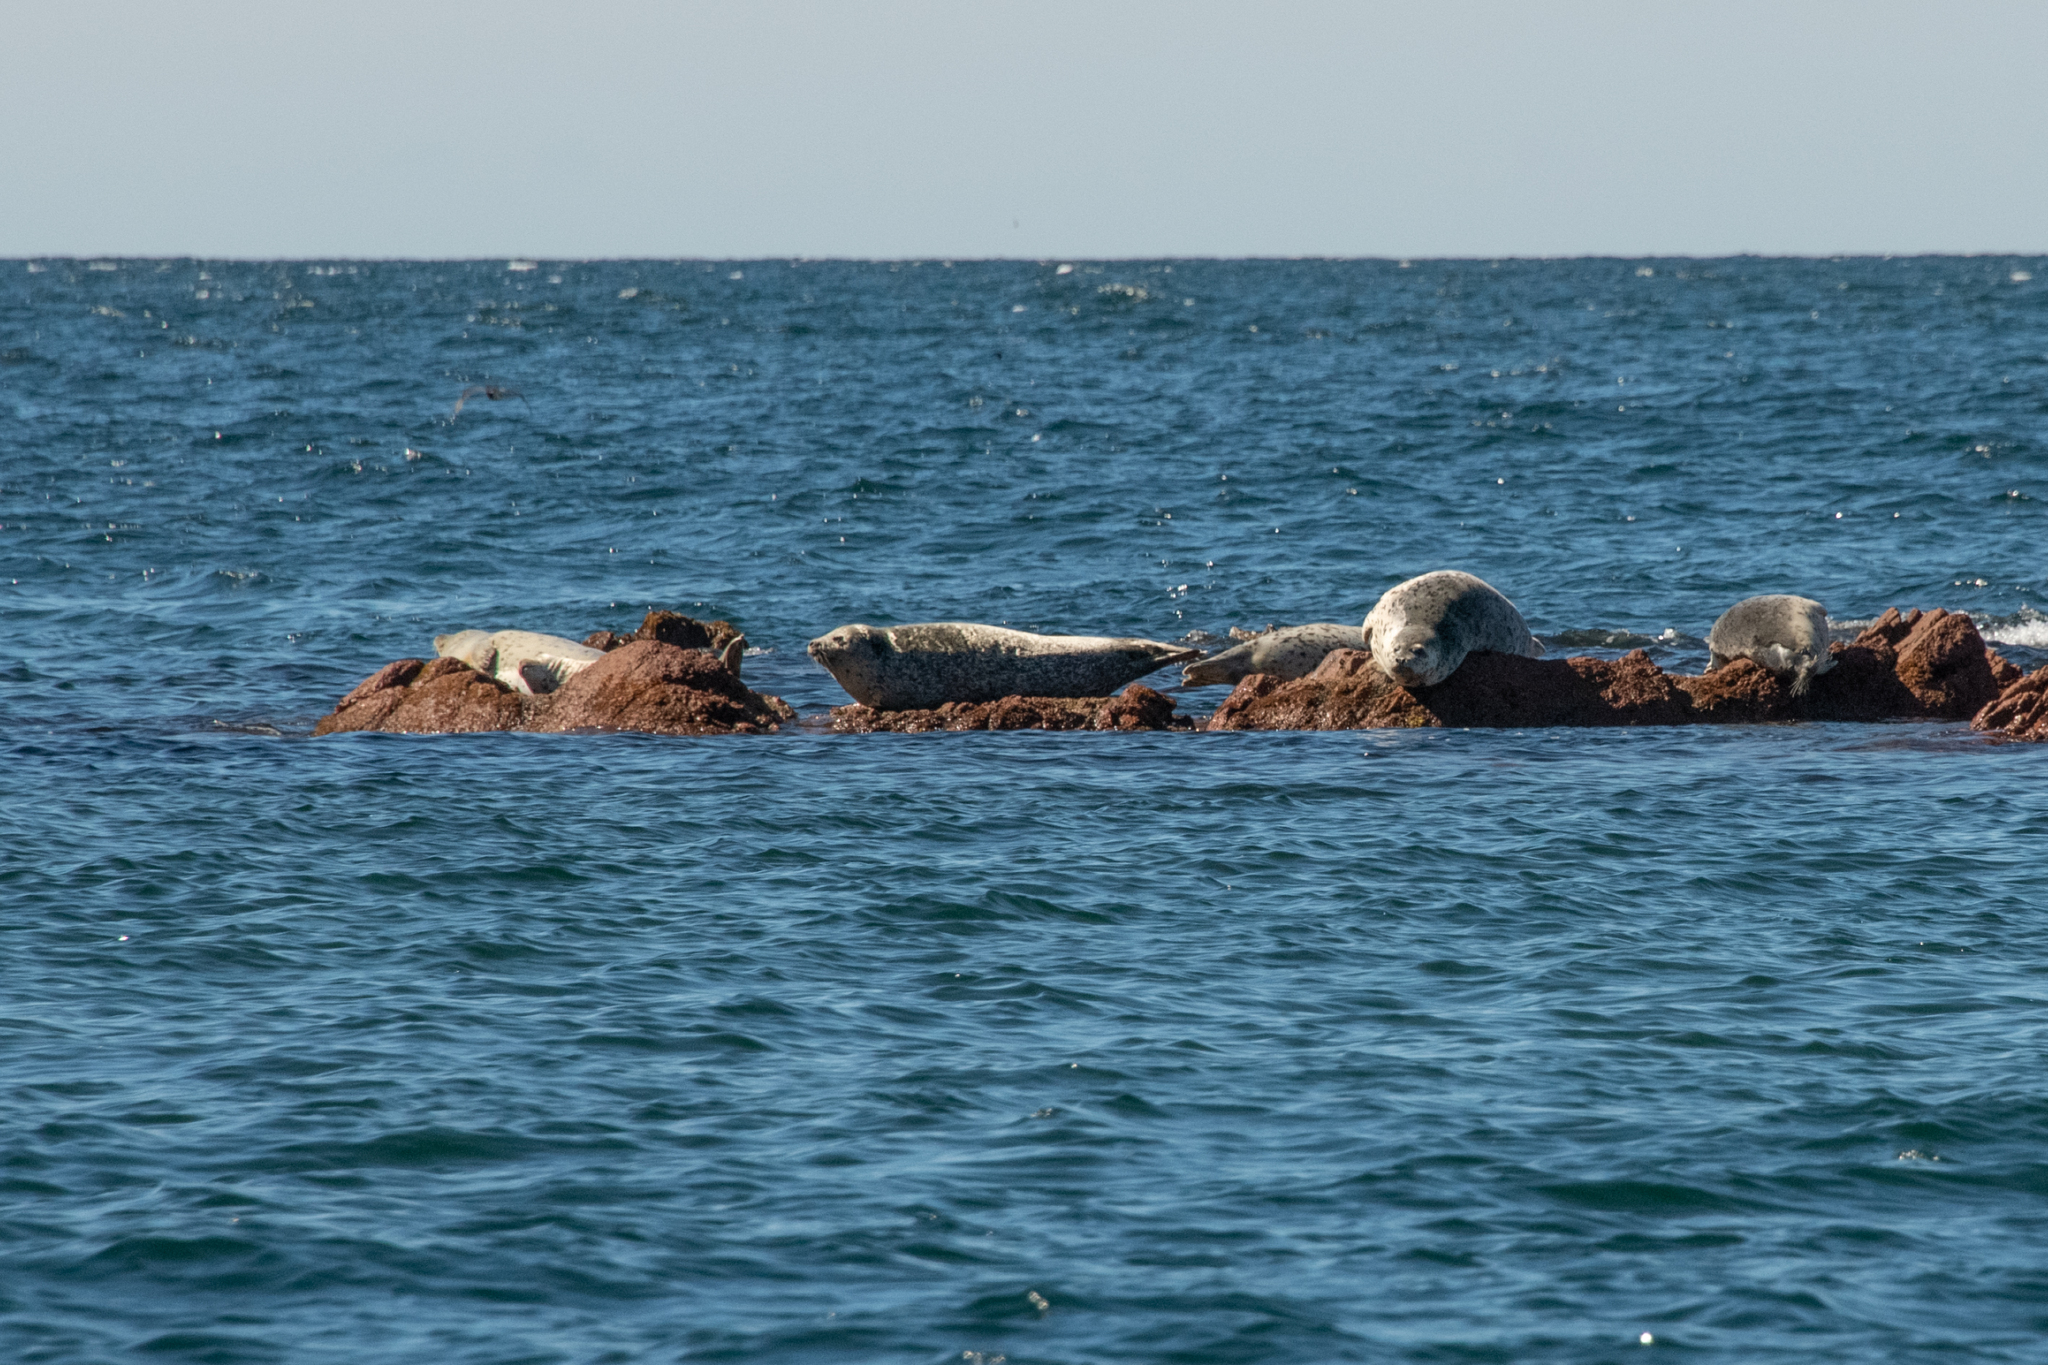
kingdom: Animalia
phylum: Chordata
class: Mammalia
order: Carnivora
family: Phocidae
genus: Phoca
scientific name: Phoca largha
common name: Spotted seal
